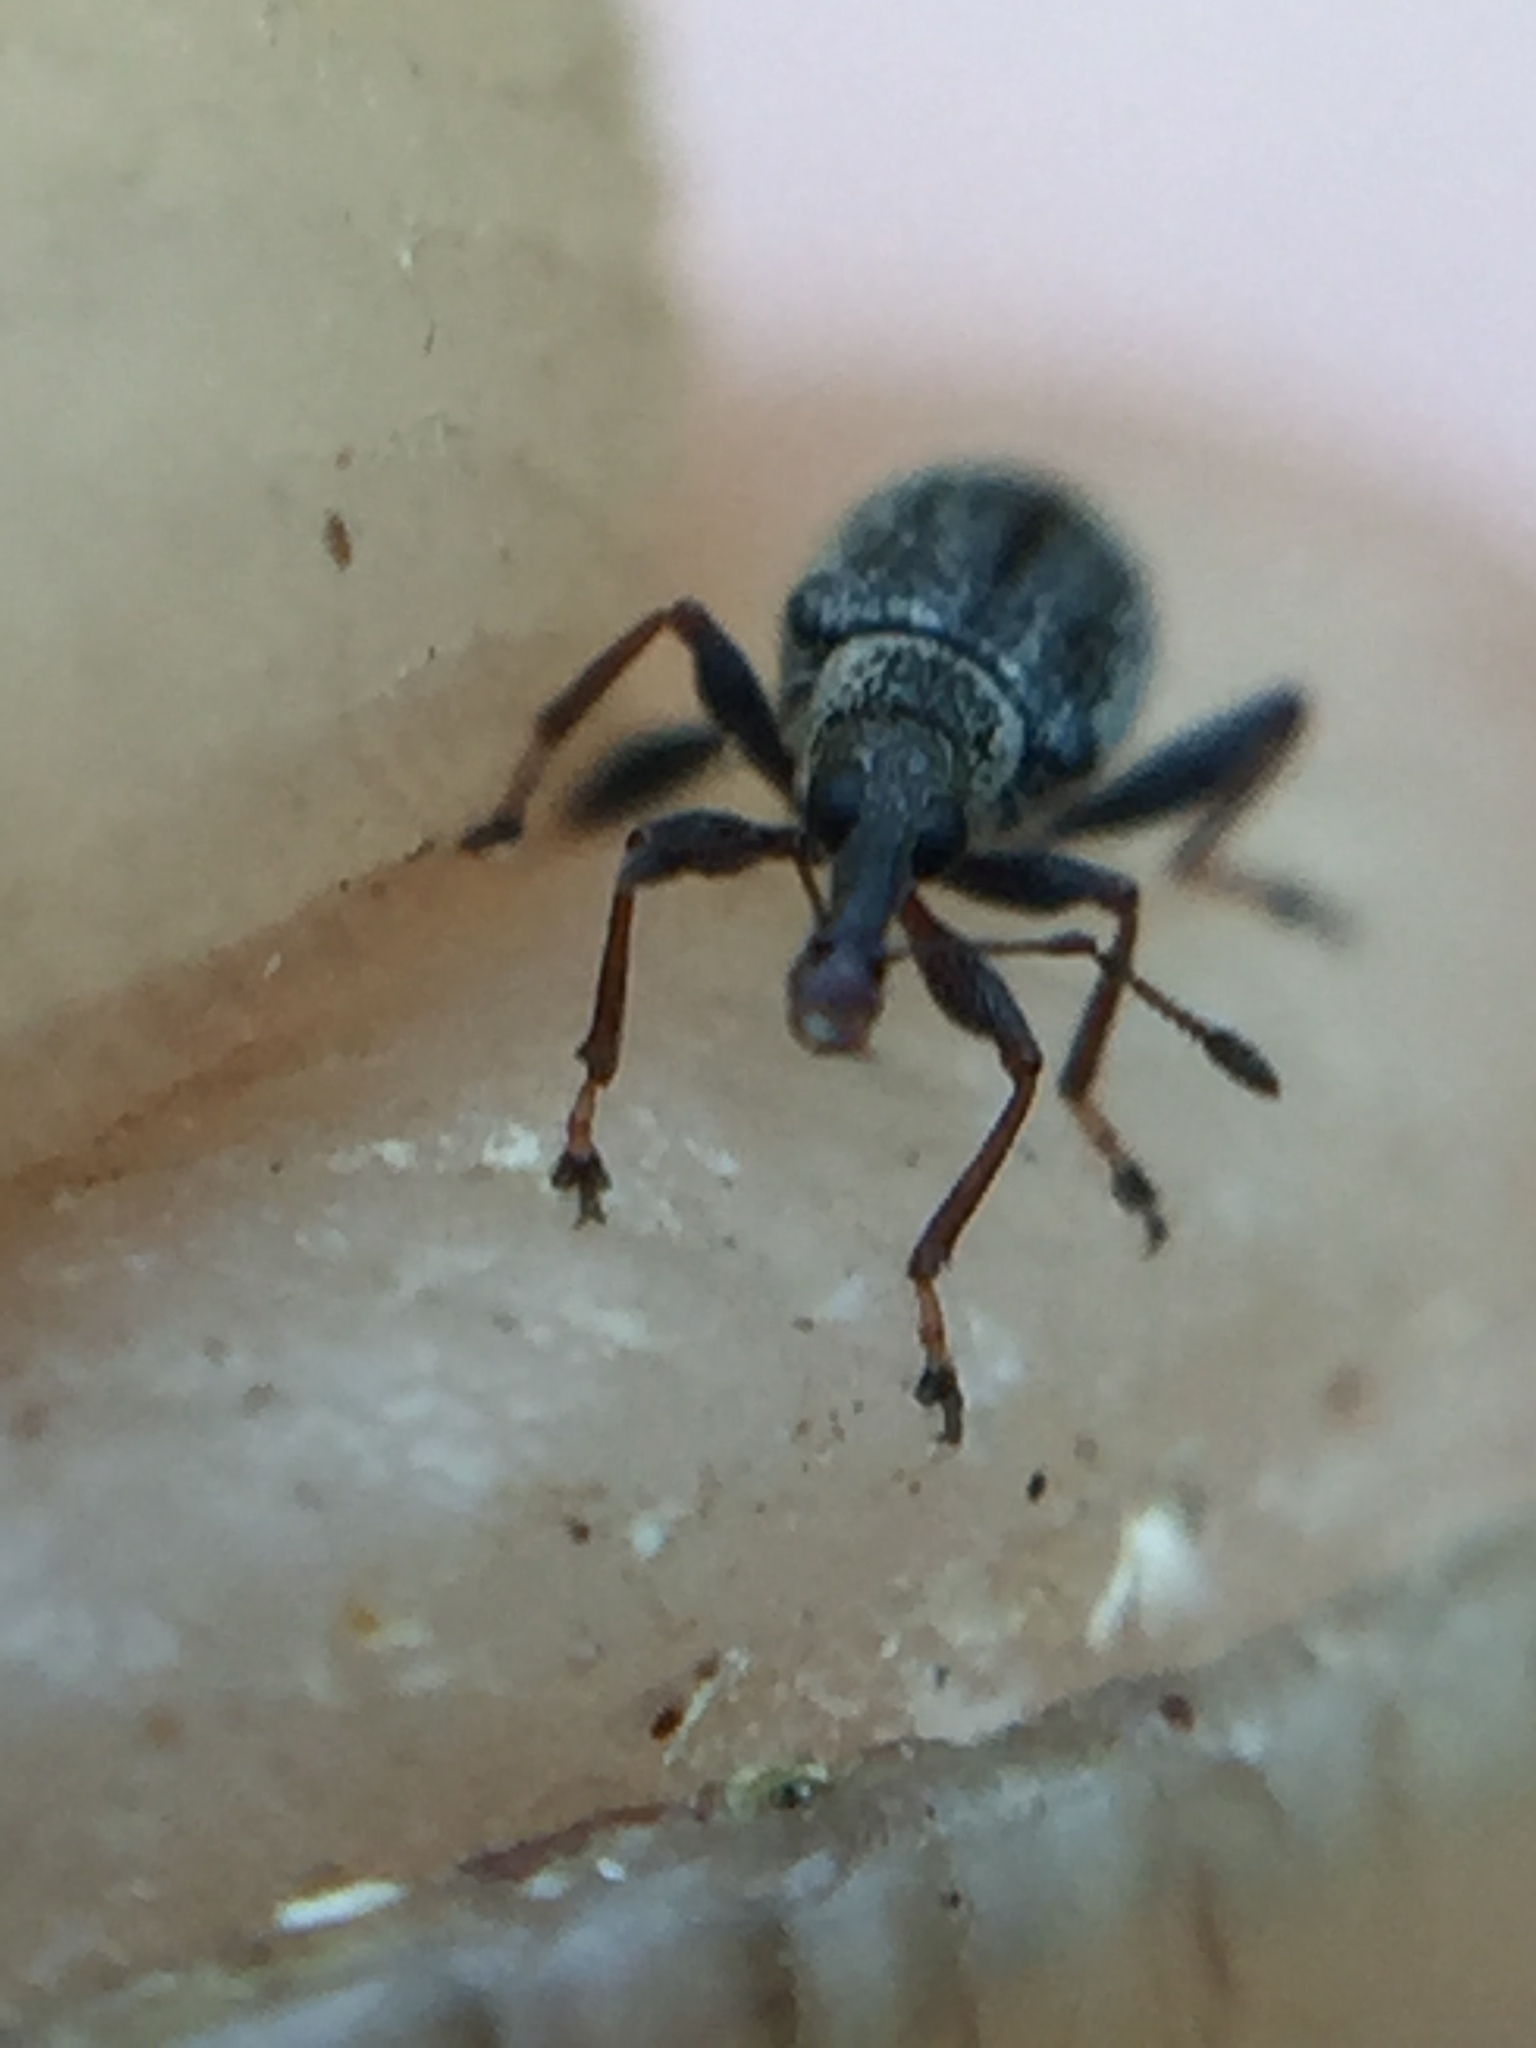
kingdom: Animalia
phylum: Arthropoda
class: Insecta
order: Coleoptera
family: Curculionidae
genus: Hoplocneme
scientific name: Hoplocneme squamosa
